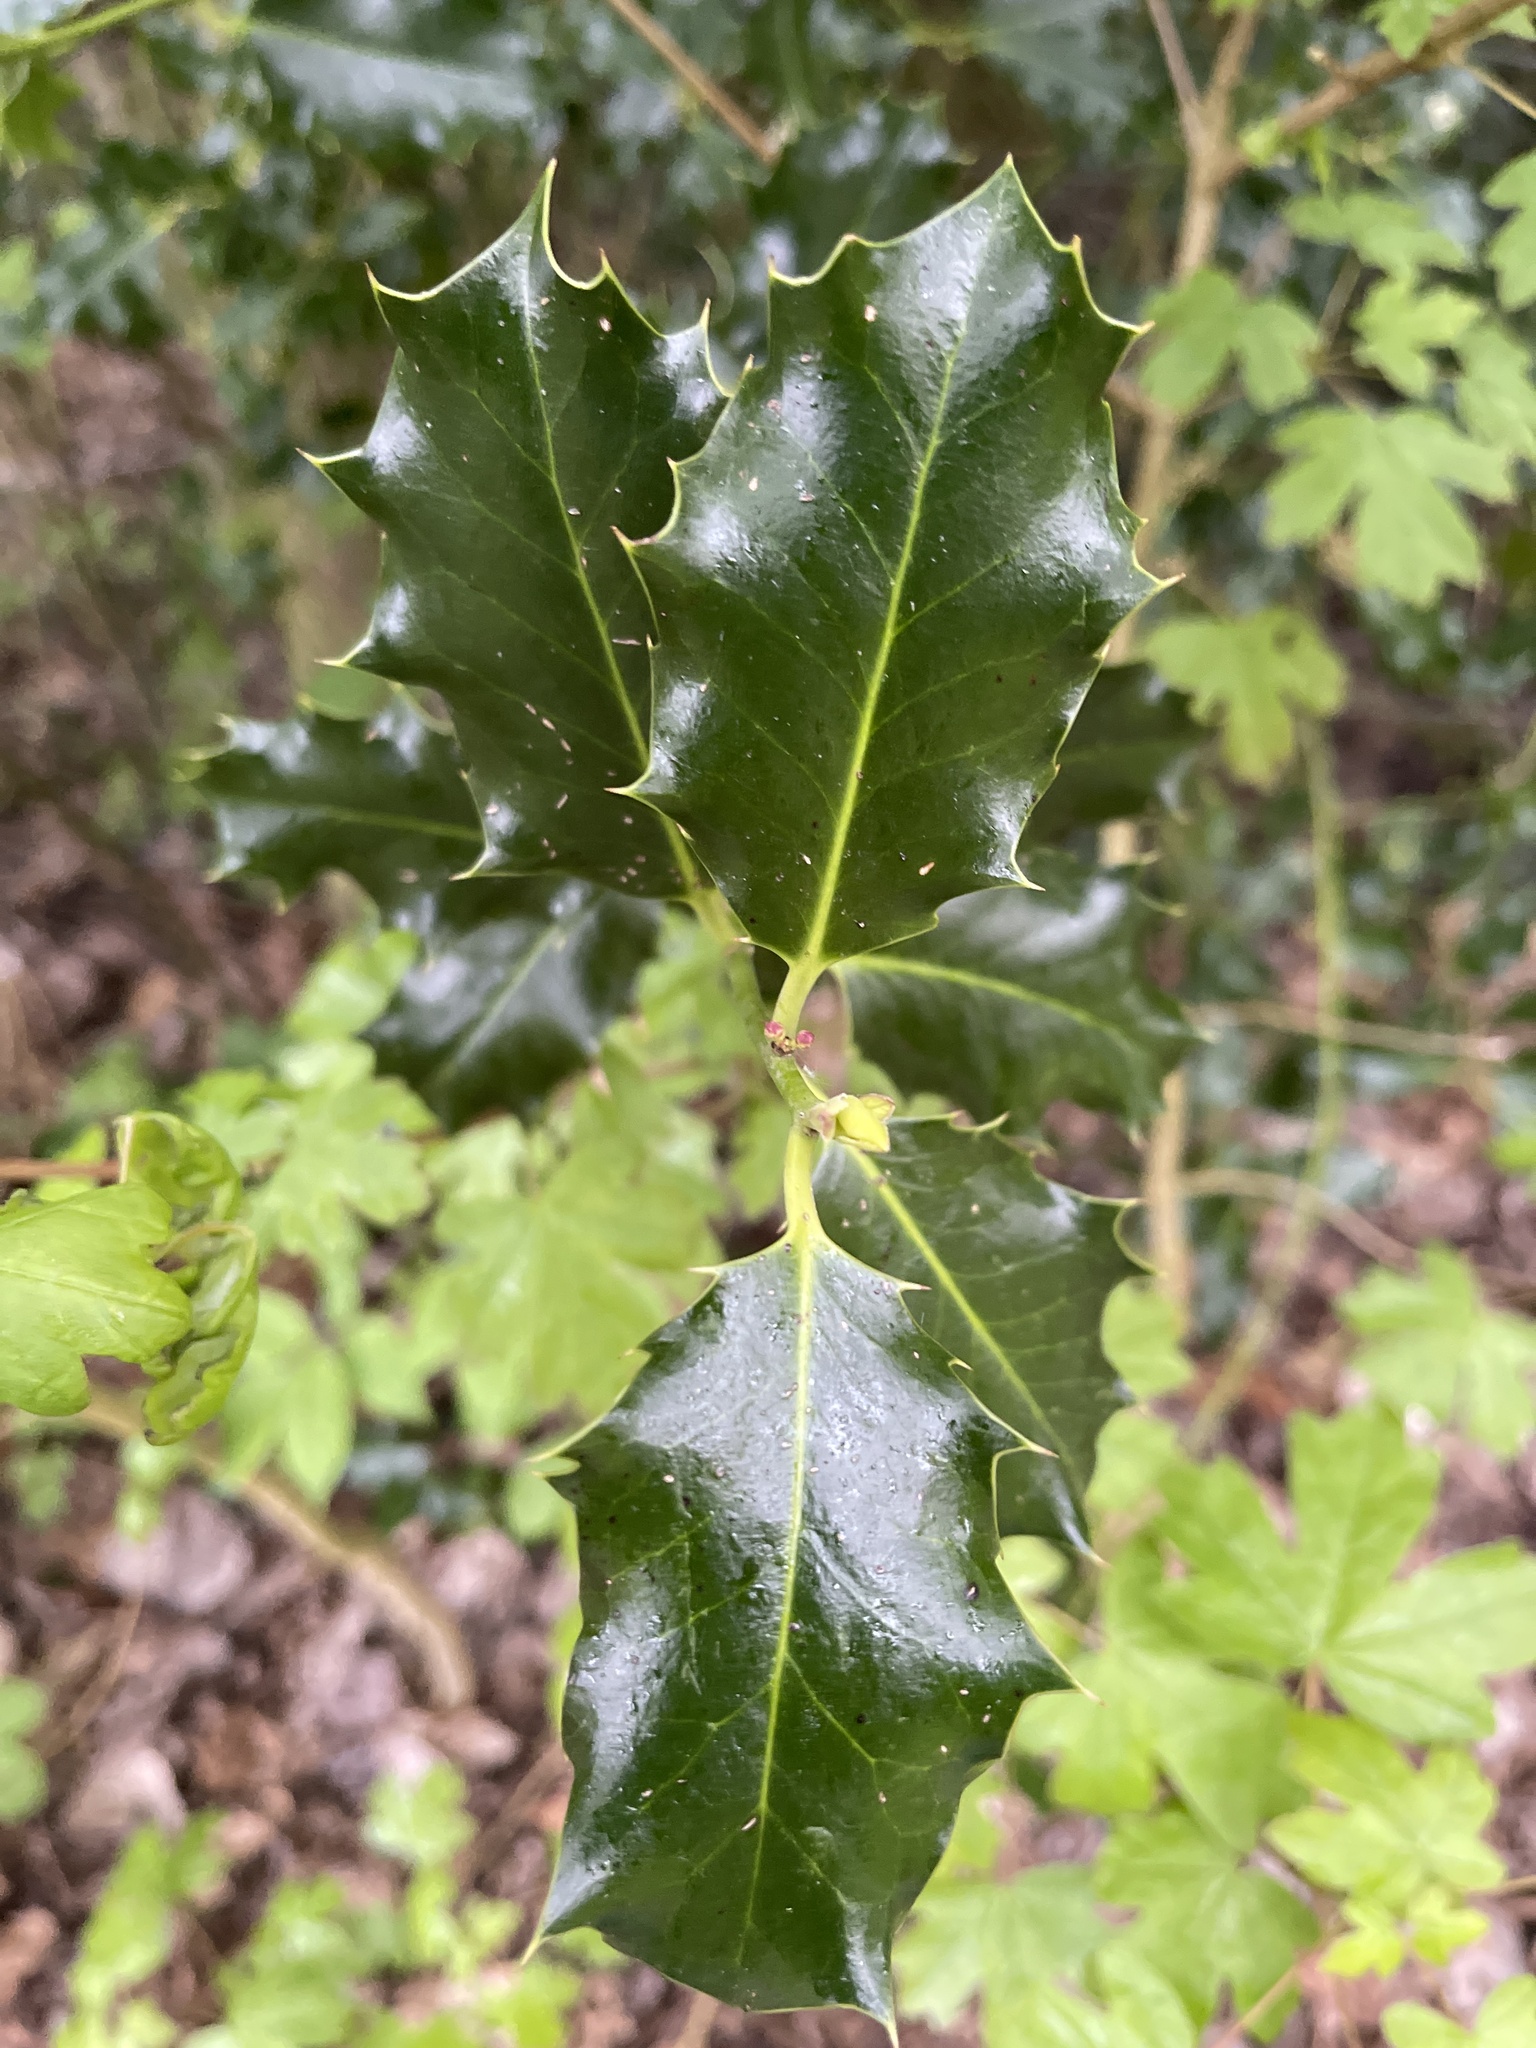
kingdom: Plantae
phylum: Tracheophyta
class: Magnoliopsida
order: Aquifoliales
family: Aquifoliaceae
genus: Ilex
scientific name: Ilex aquifolium
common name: English holly
